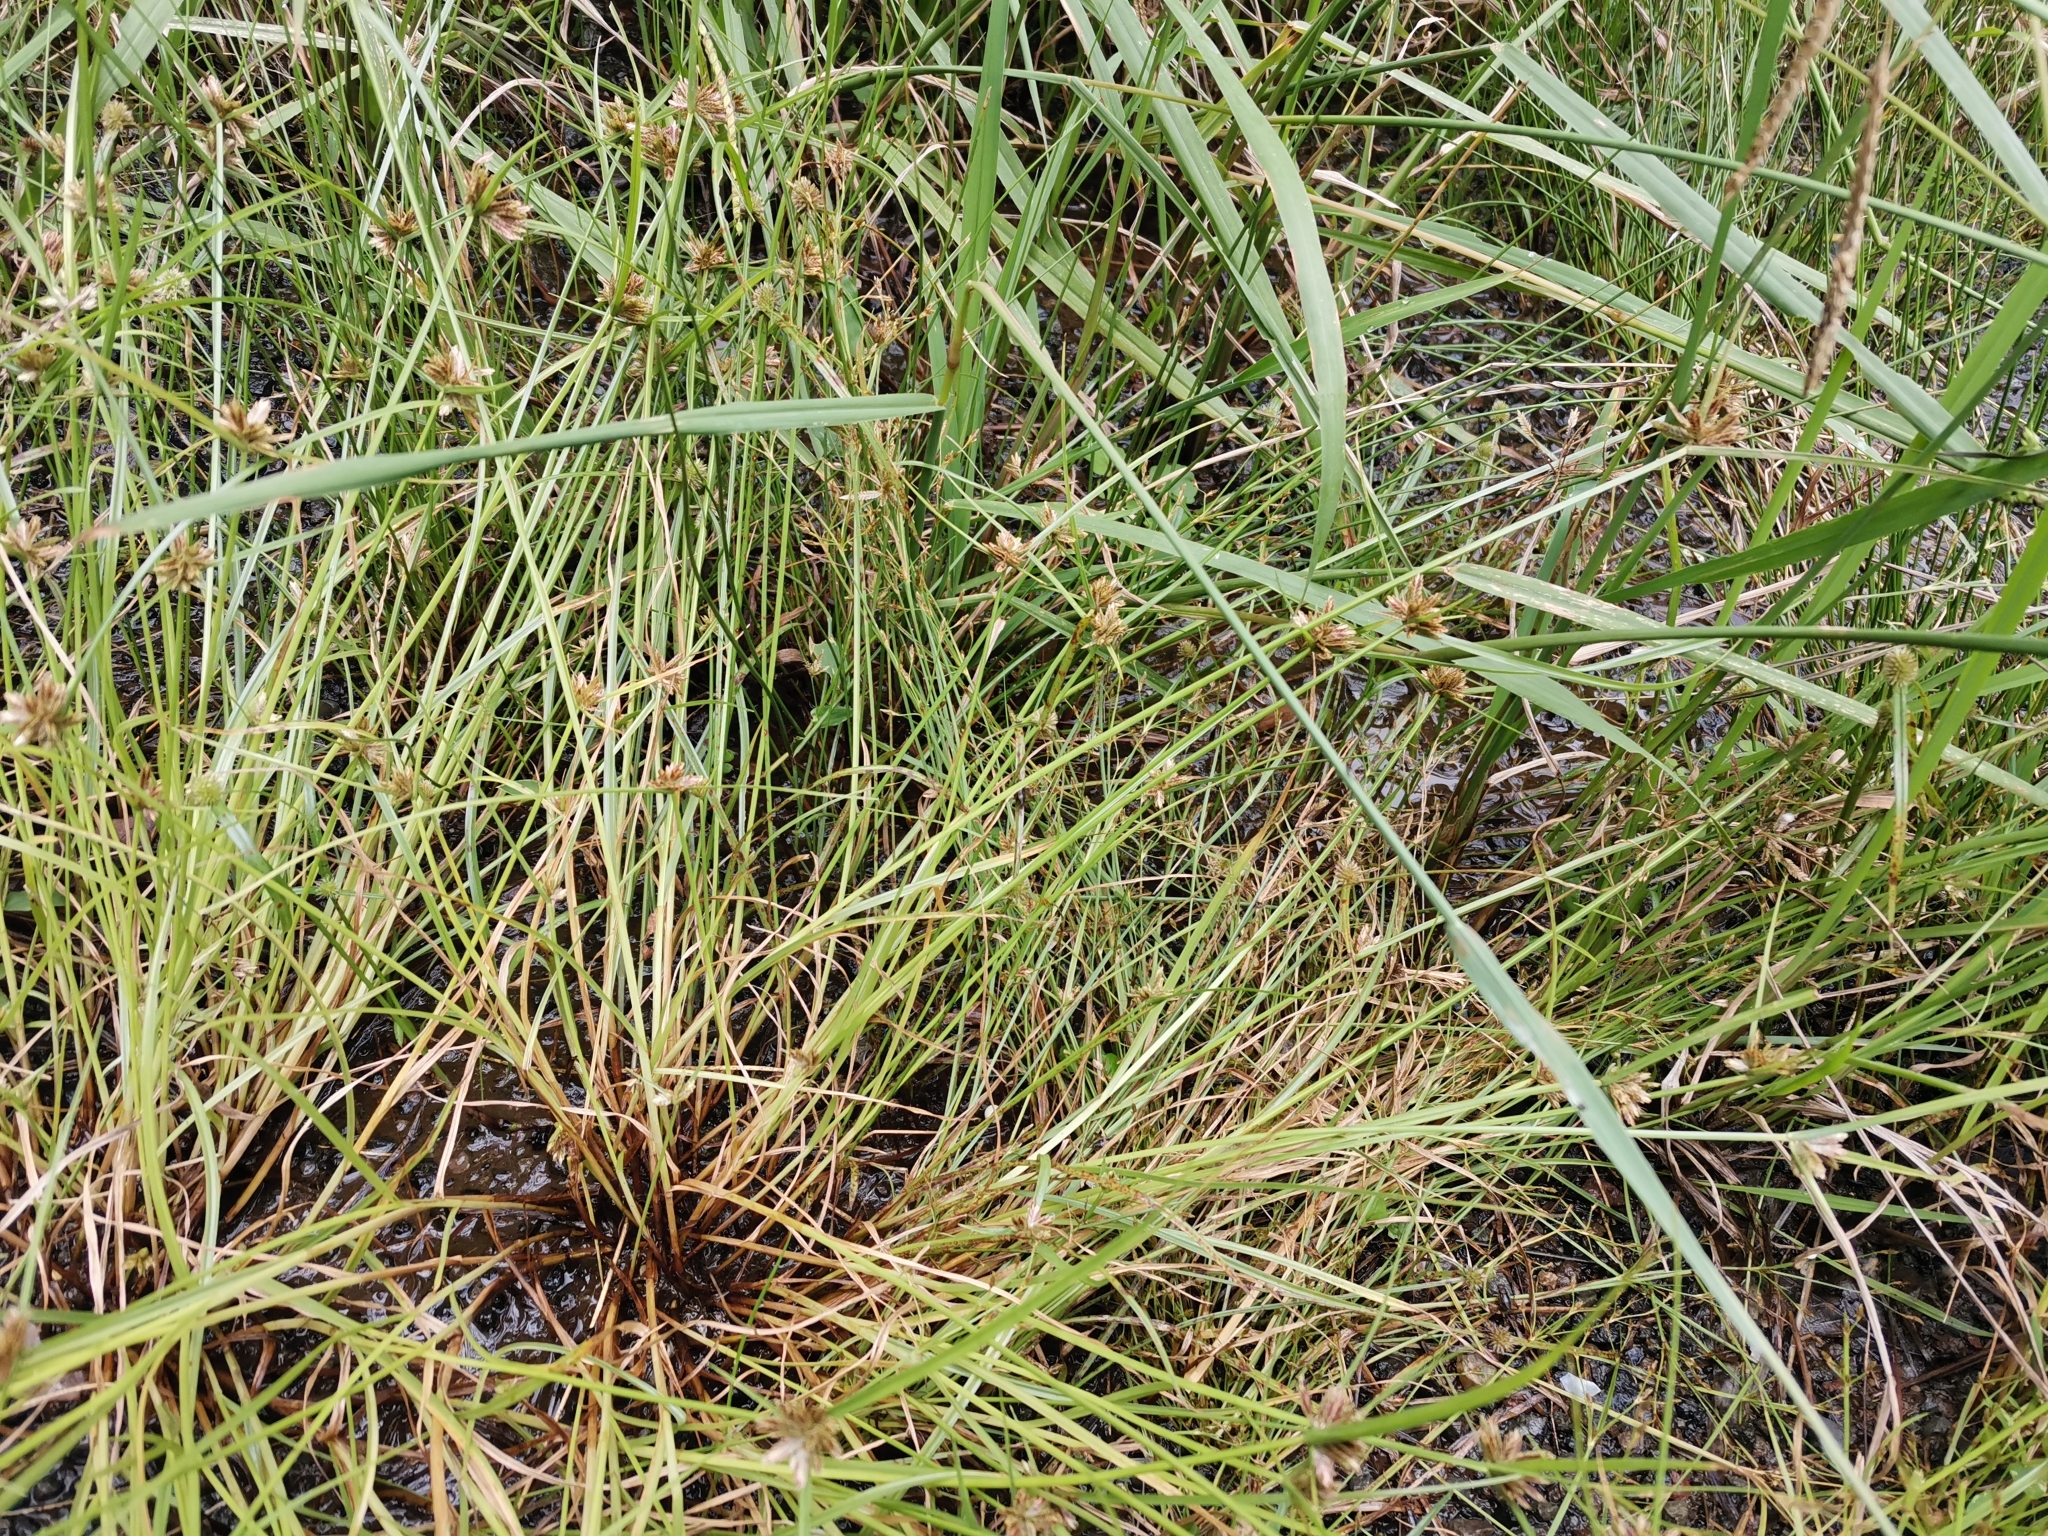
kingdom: Plantae
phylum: Tracheophyta
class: Liliopsida
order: Poales
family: Cyperaceae
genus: Cyperus
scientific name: Cyperus sanguinolentus
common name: Purpleglume flatsedge
